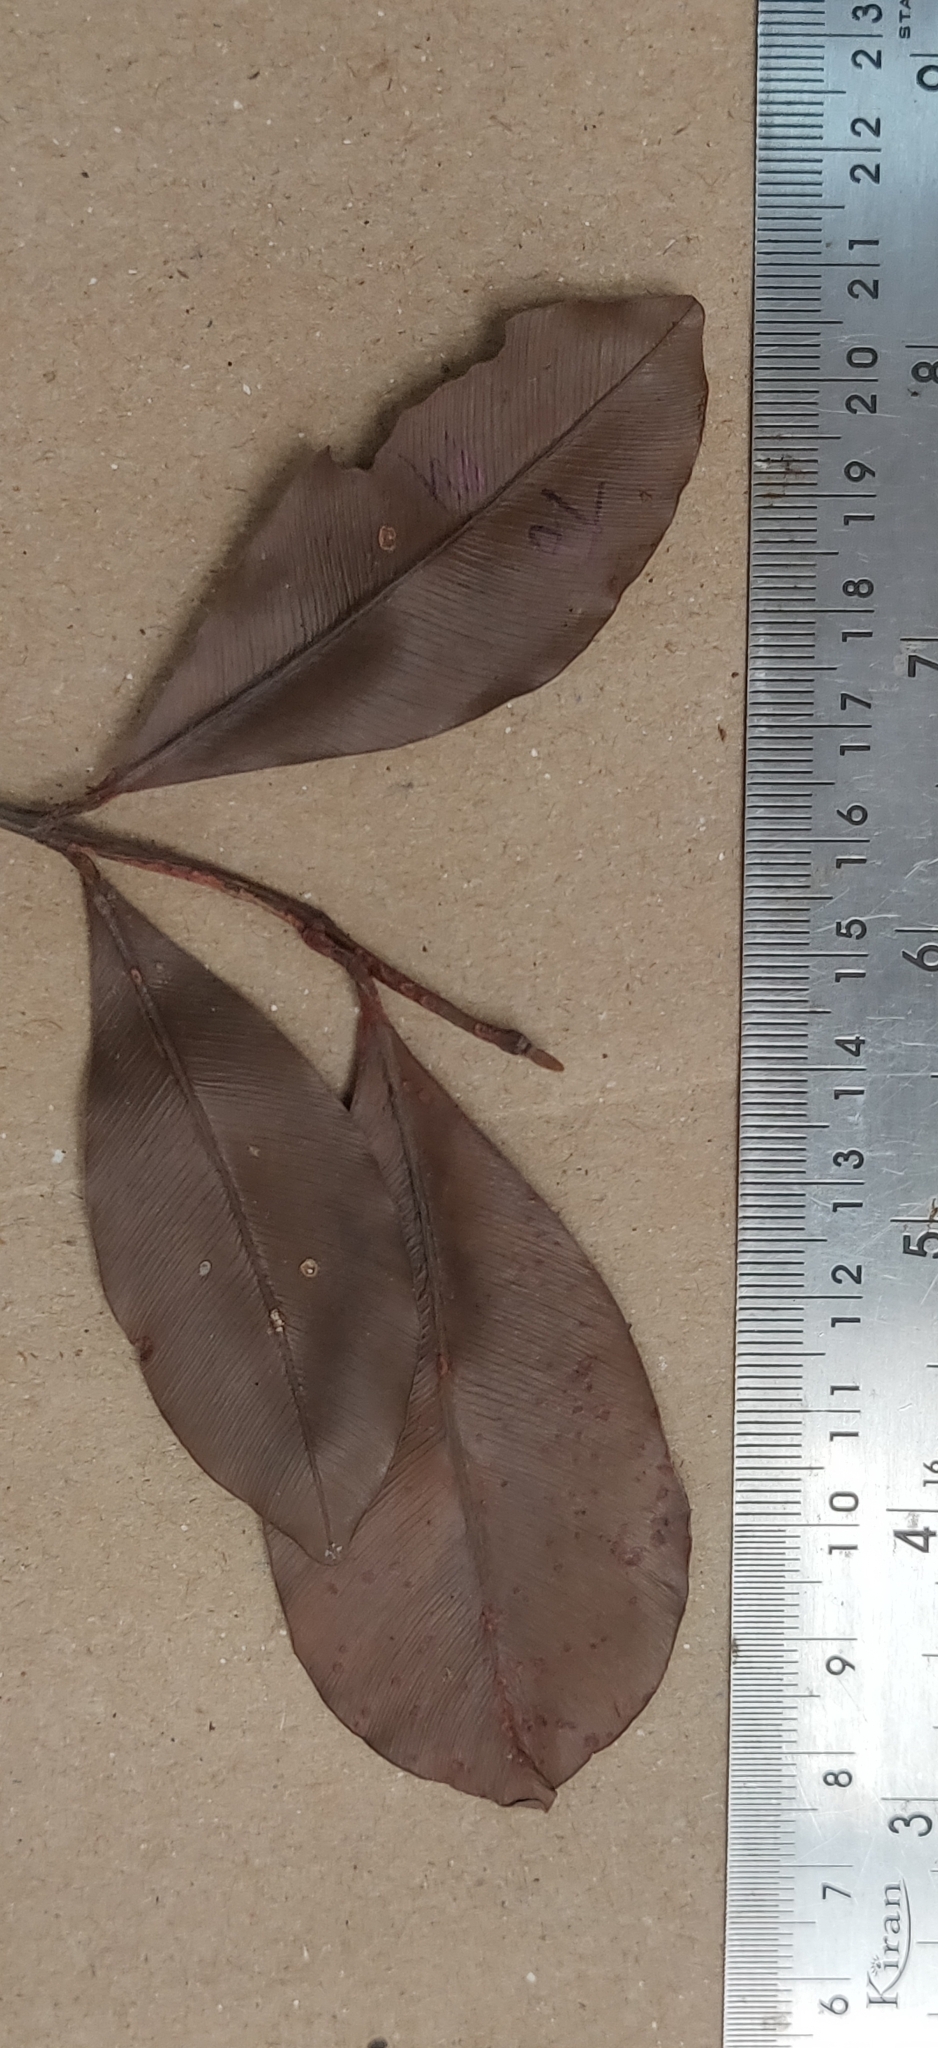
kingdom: Plantae
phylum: Tracheophyta
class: Magnoliopsida
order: Malpighiales
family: Calophyllaceae
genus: Calophyllum
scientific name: Calophyllum austroindicum
